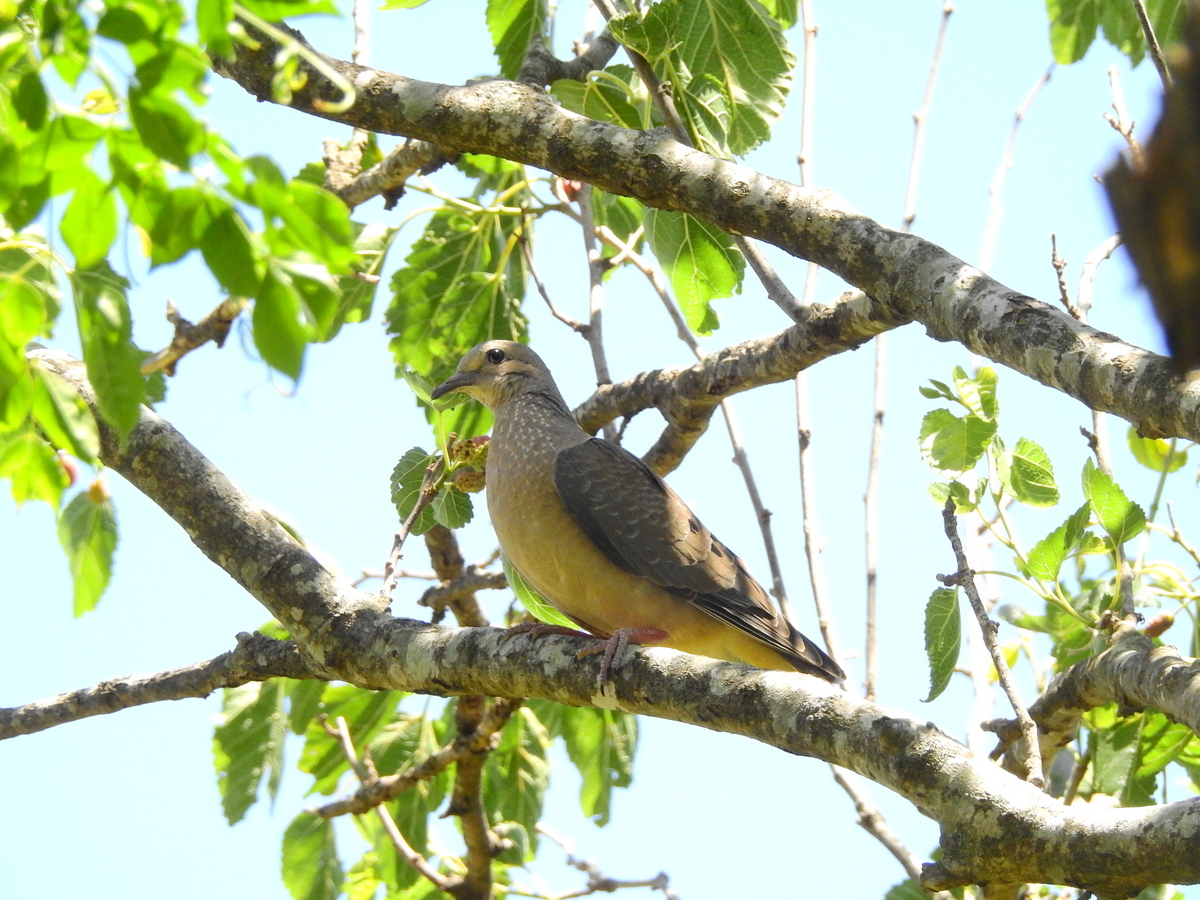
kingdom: Animalia
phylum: Chordata
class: Aves
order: Columbiformes
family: Columbidae
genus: Zenaida
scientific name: Zenaida auriculata
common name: Eared dove
